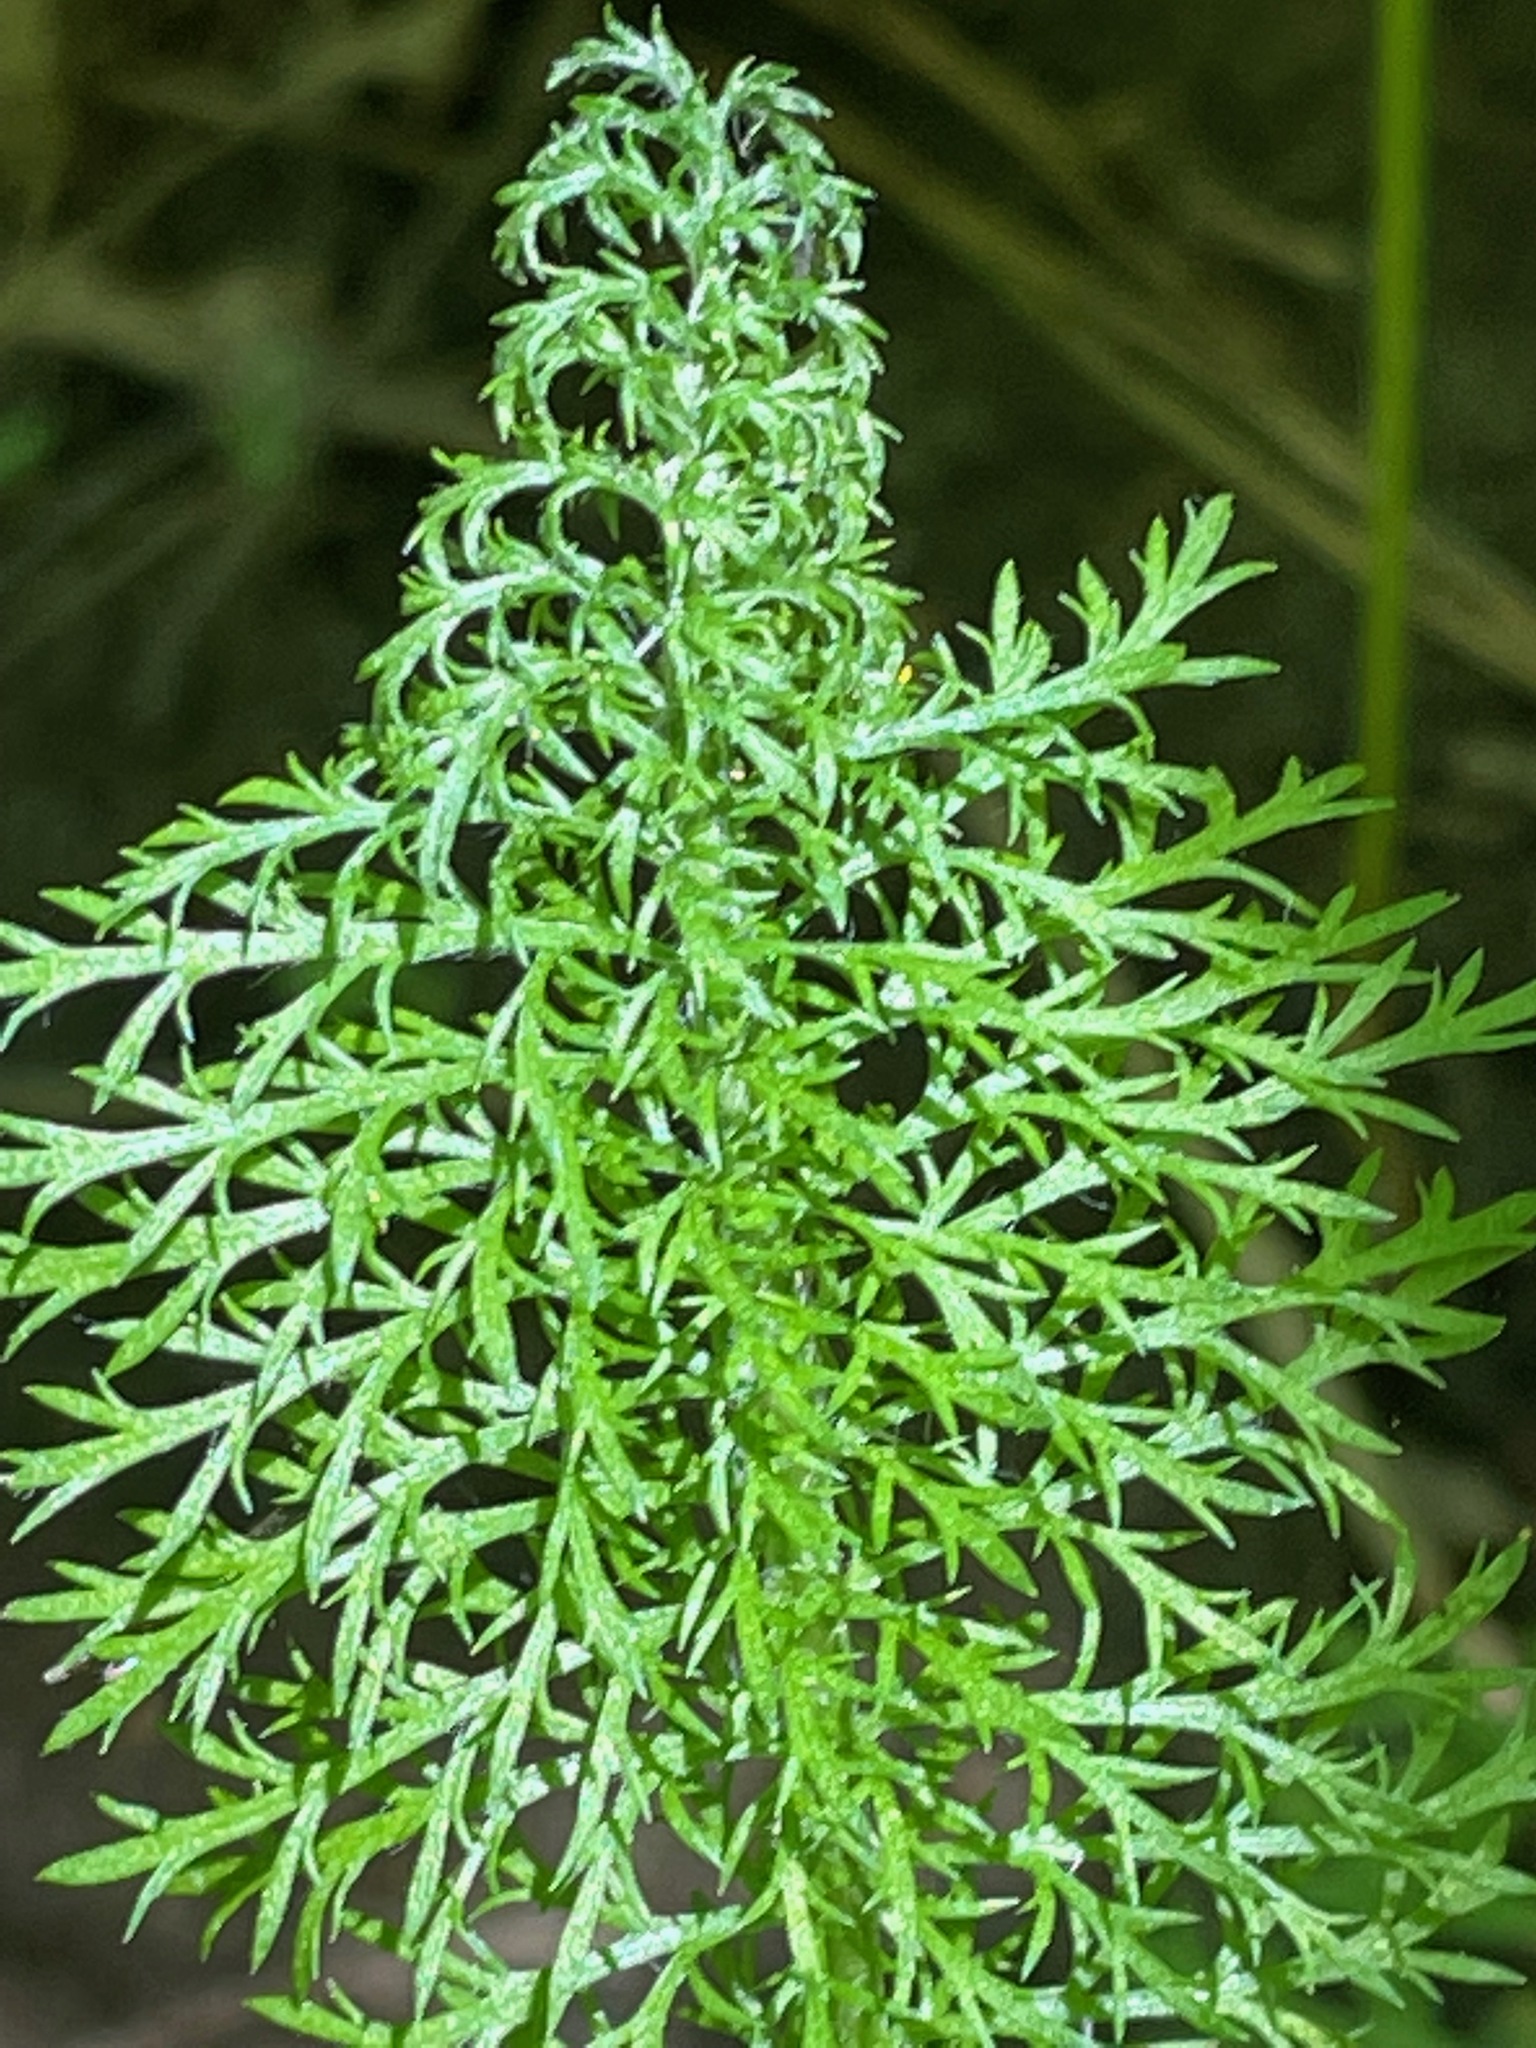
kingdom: Plantae
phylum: Tracheophyta
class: Magnoliopsida
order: Asterales
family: Asteraceae
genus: Achillea
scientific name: Achillea millefolium
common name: Yarrow
